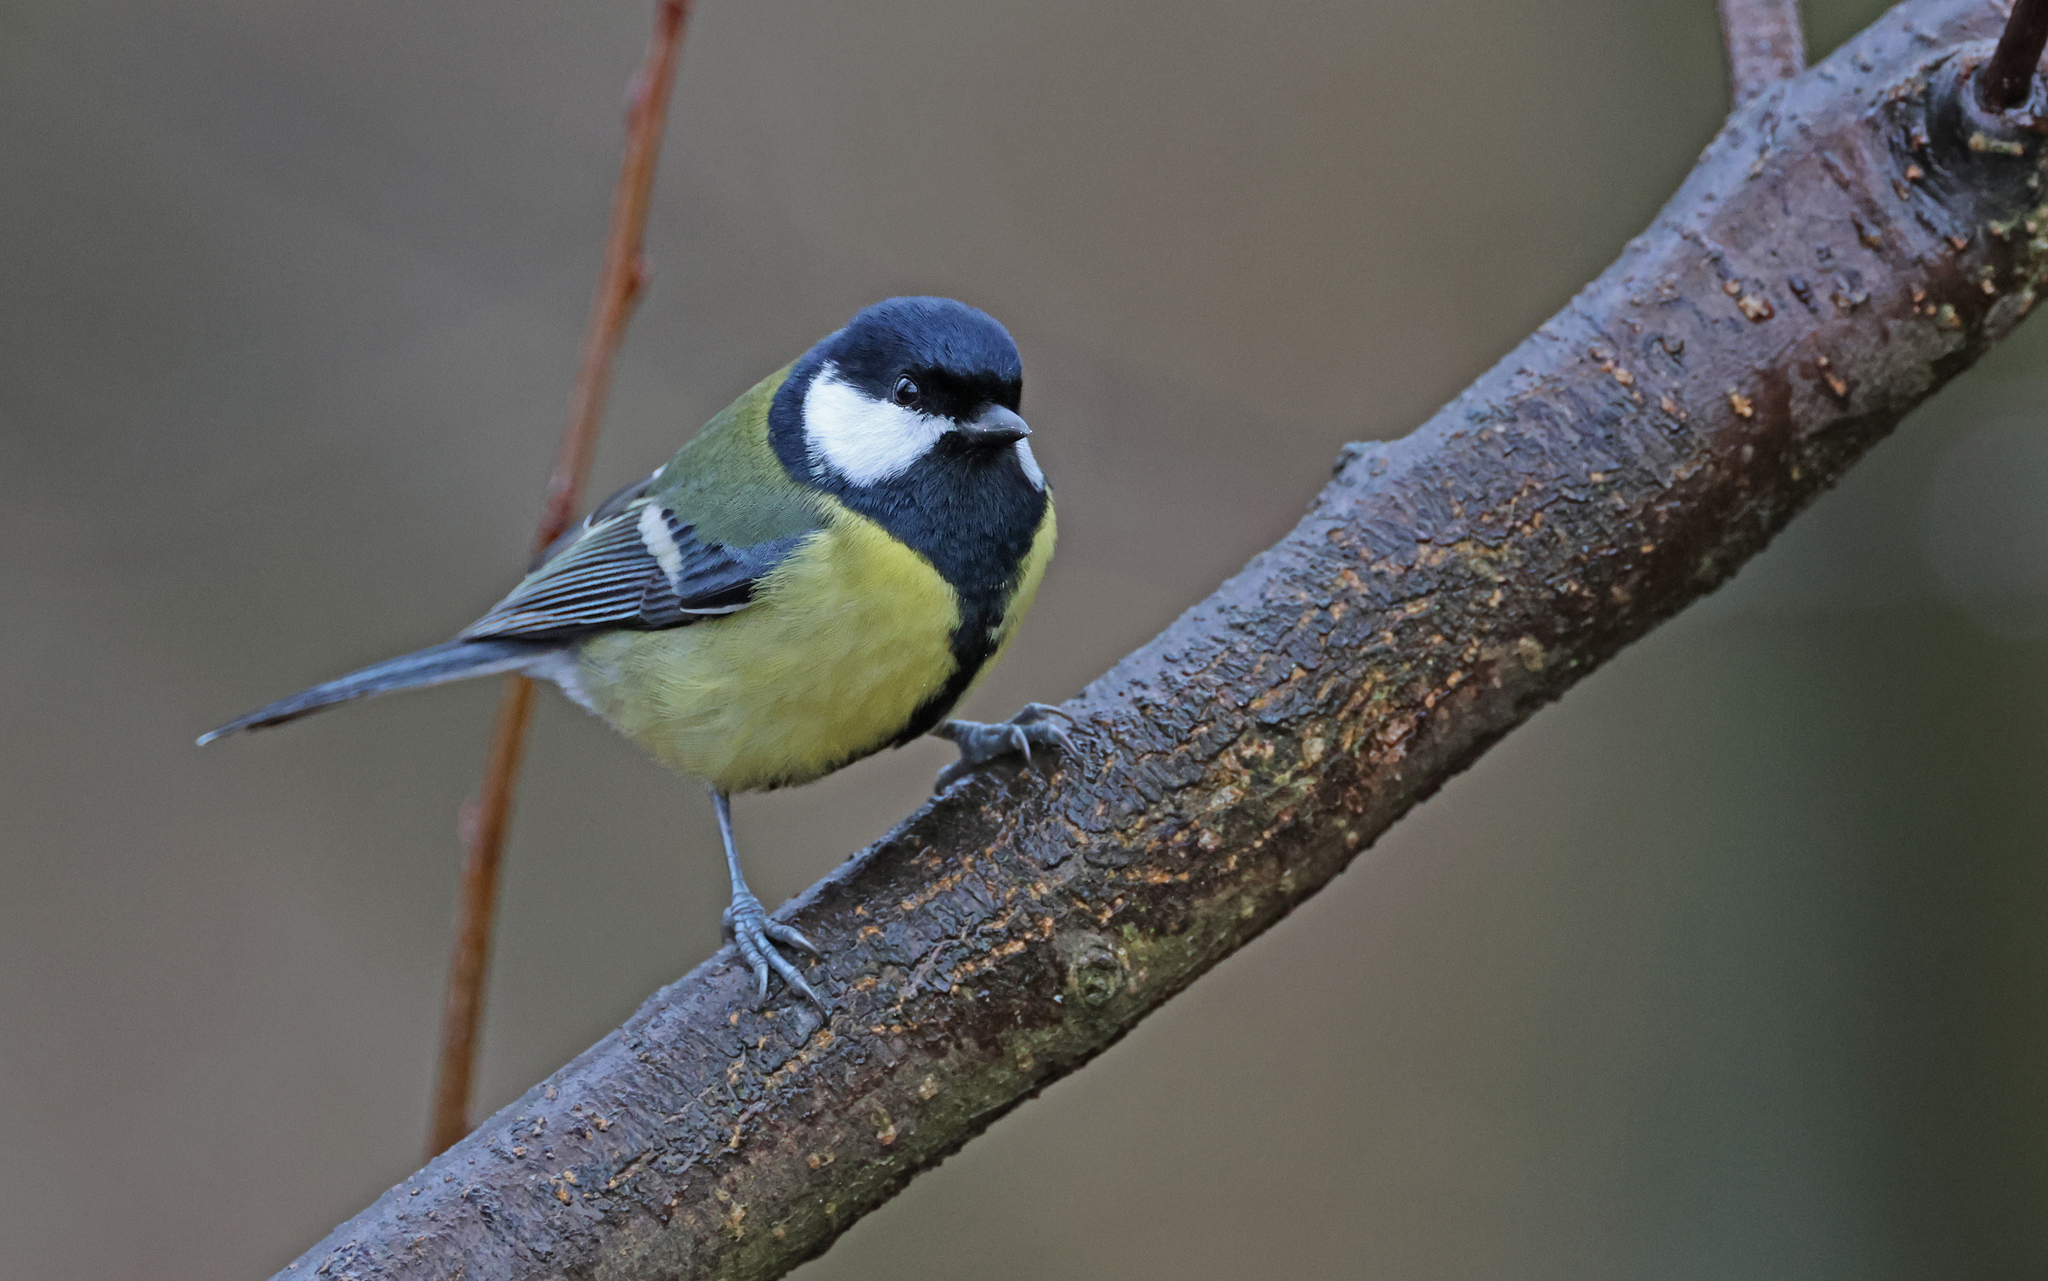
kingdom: Animalia
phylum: Chordata
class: Aves
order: Passeriformes
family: Paridae
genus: Parus
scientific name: Parus major
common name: Great tit
